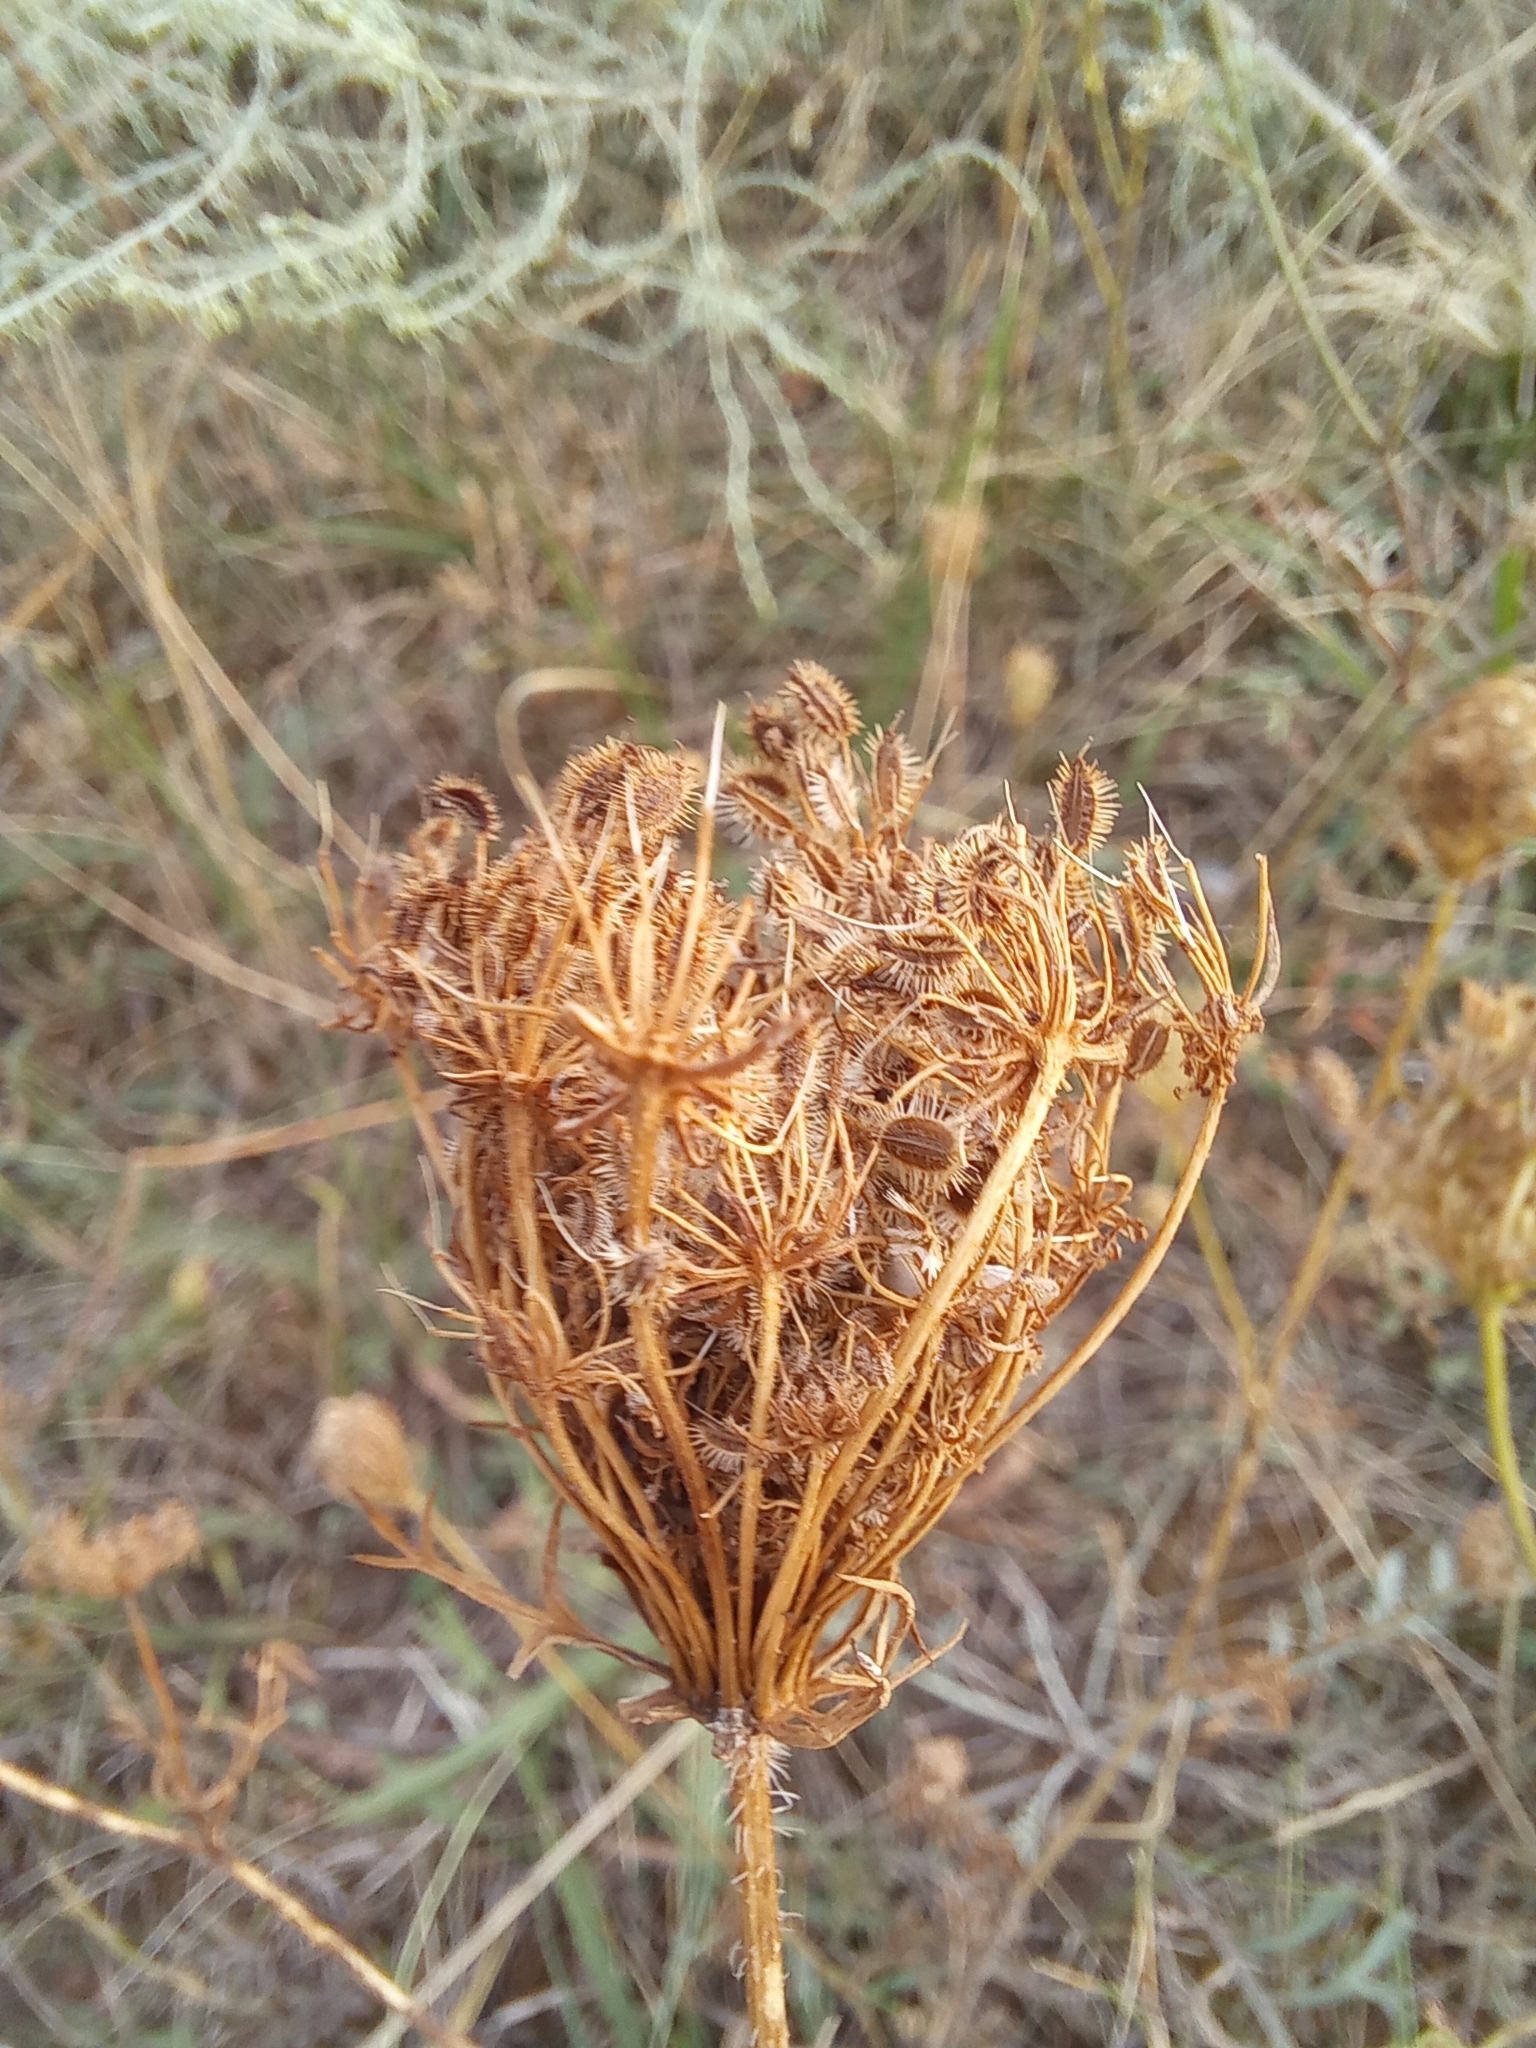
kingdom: Plantae
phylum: Tracheophyta
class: Magnoliopsida
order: Apiales
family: Apiaceae
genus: Daucus
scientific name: Daucus carota
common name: Wild carrot
